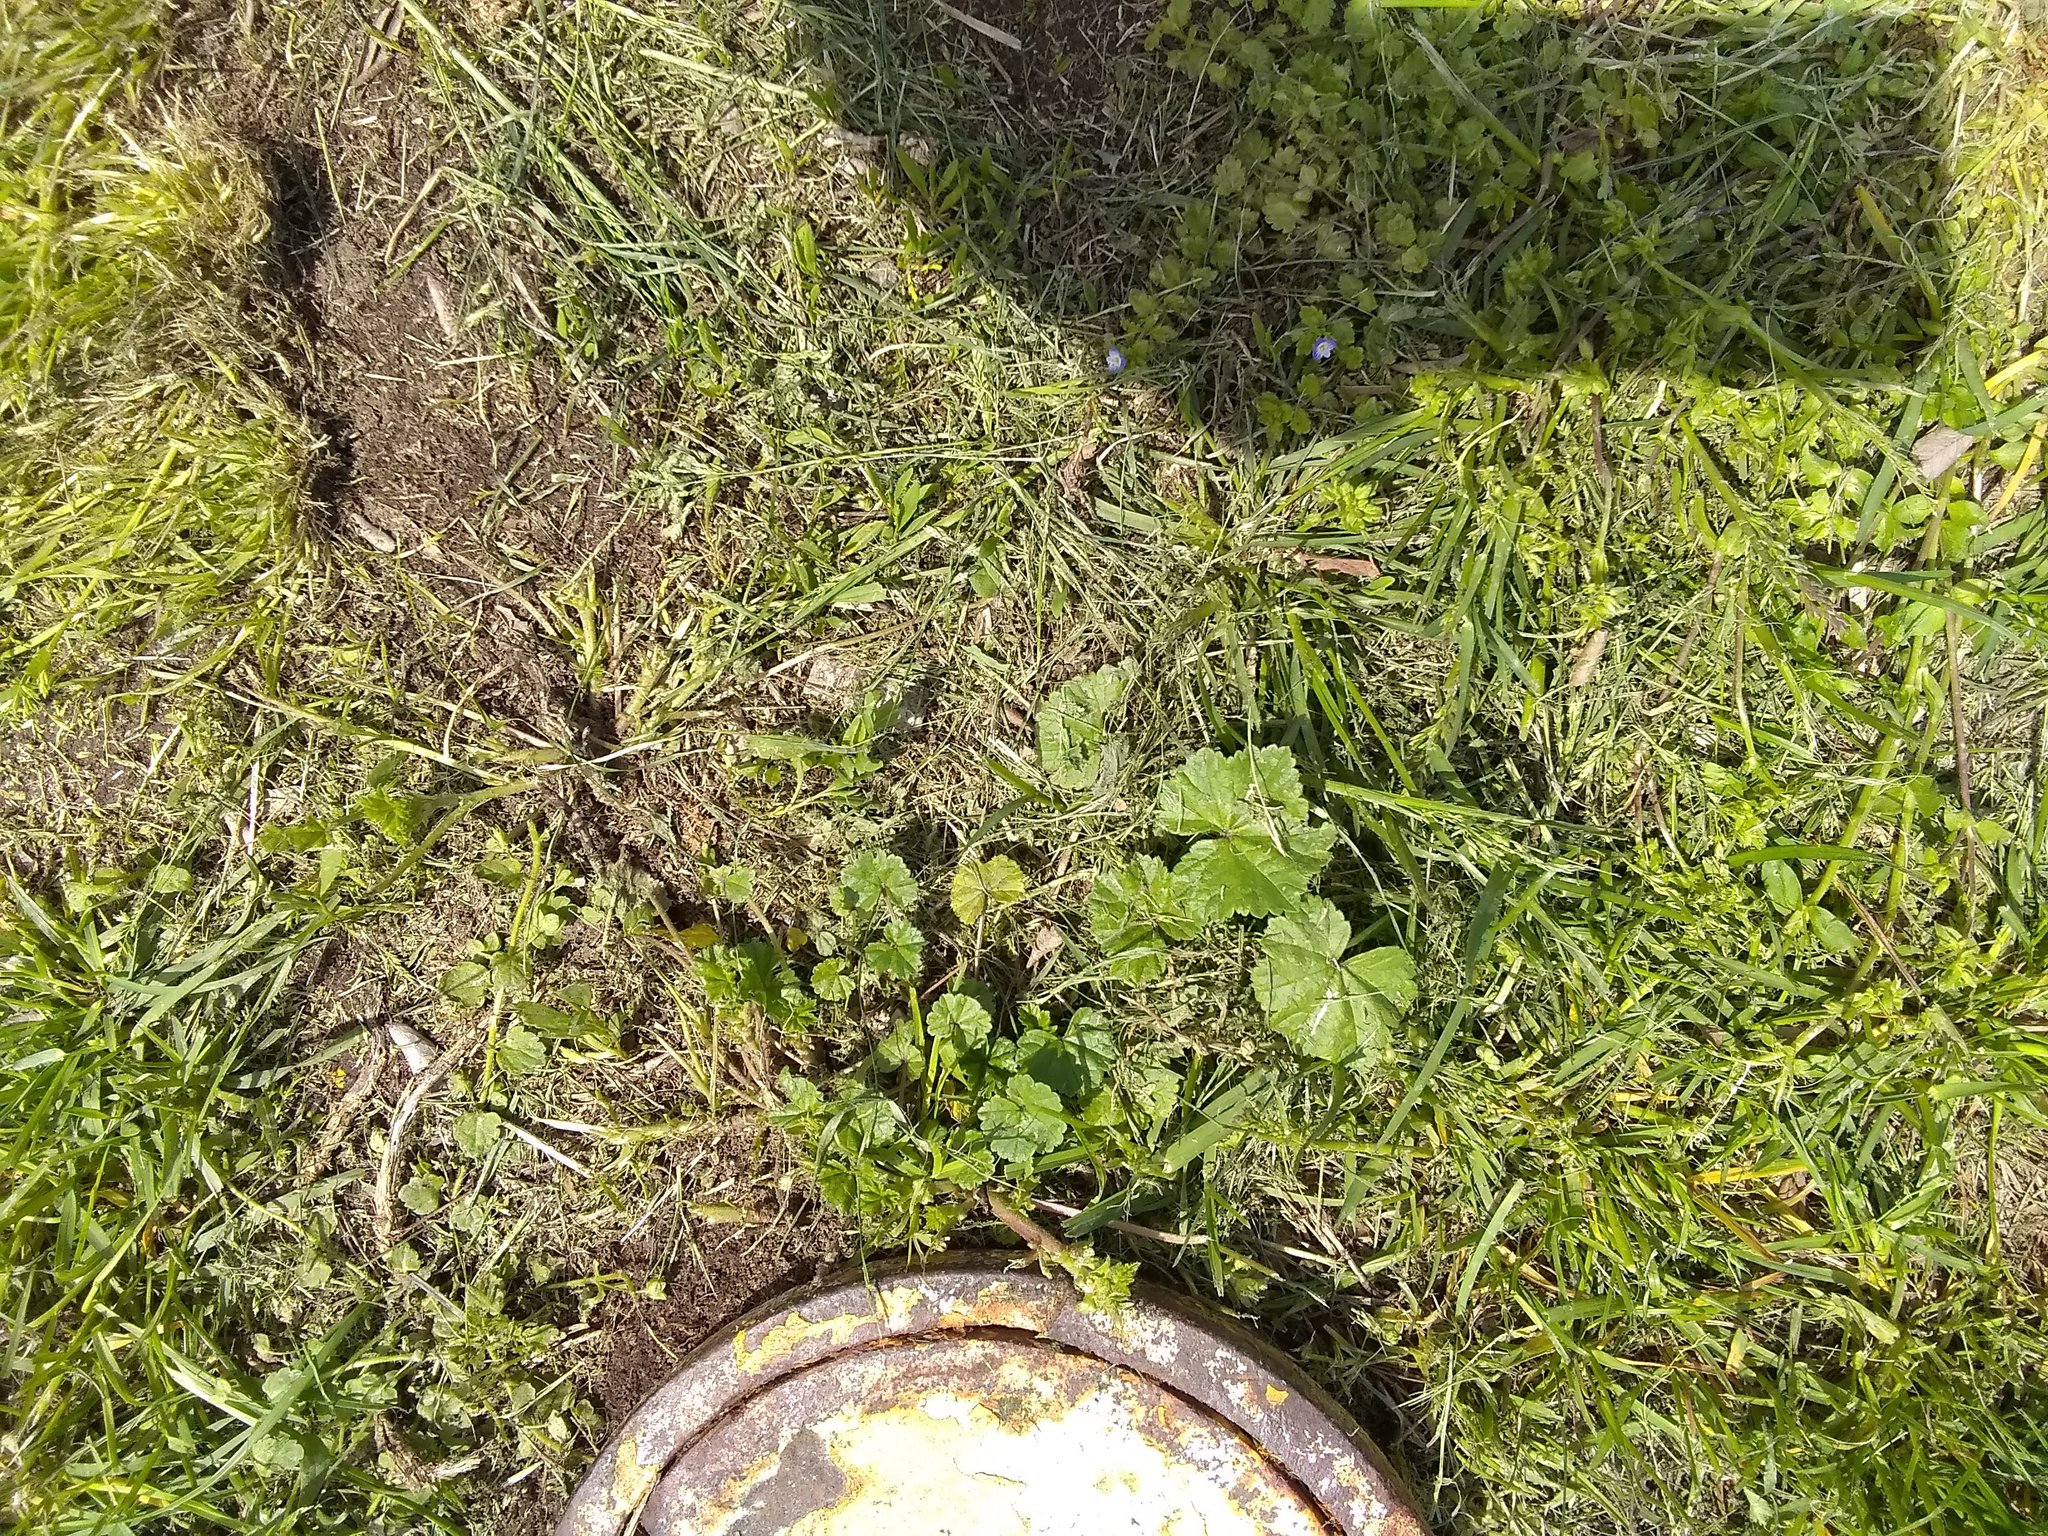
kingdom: Plantae
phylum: Tracheophyta
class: Magnoliopsida
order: Malvales
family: Malvaceae
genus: Malva
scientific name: Malva neglecta
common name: Common mallow
